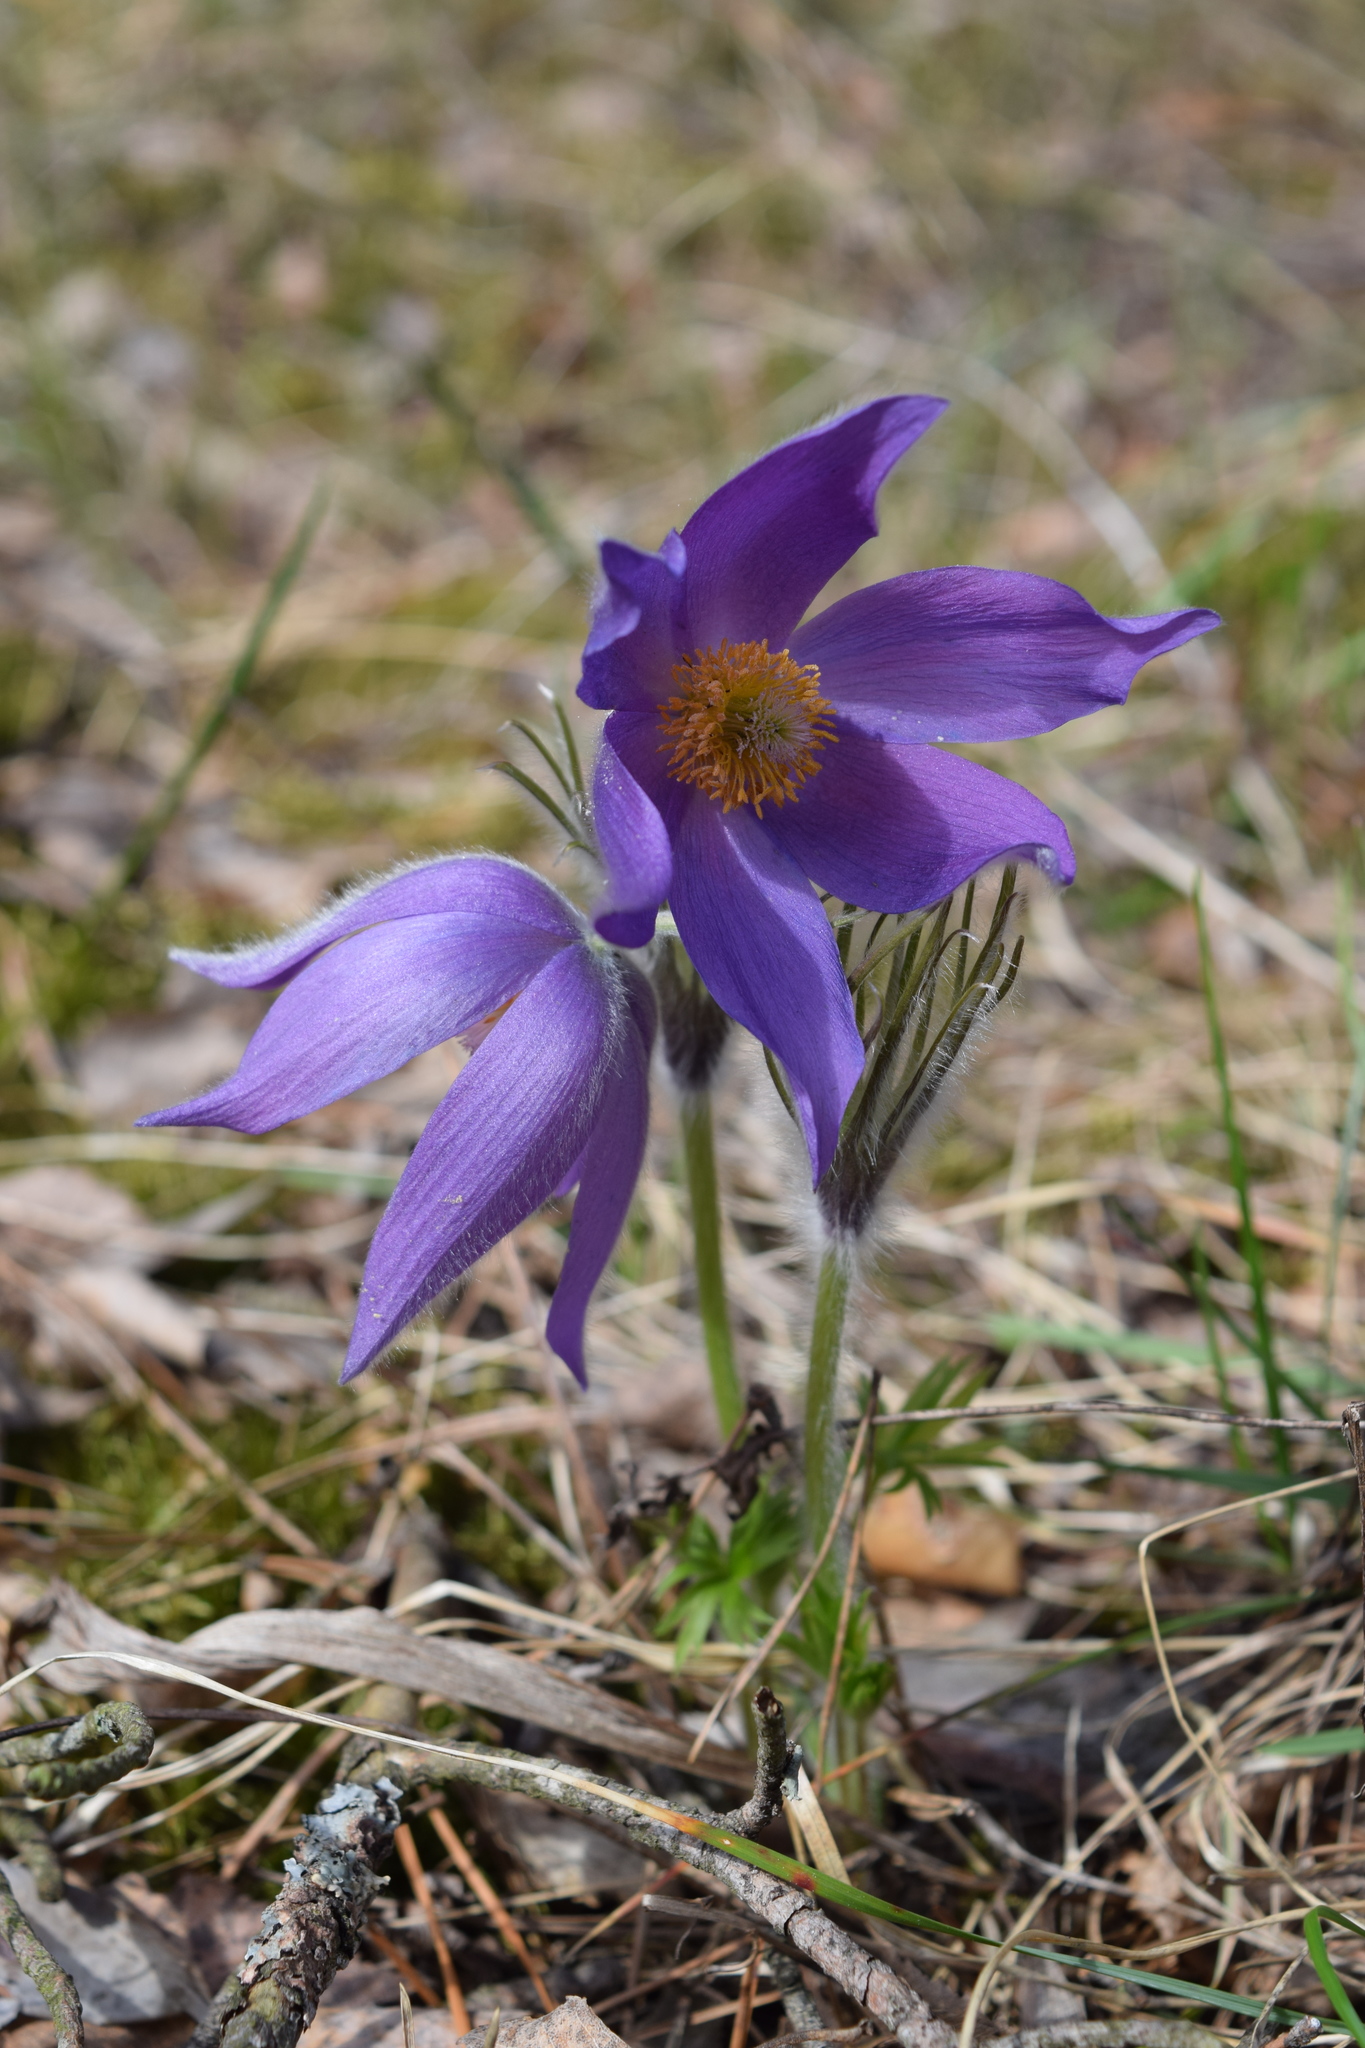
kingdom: Plantae
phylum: Tracheophyta
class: Magnoliopsida
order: Ranunculales
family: Ranunculaceae
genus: Pulsatilla
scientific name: Pulsatilla patens
